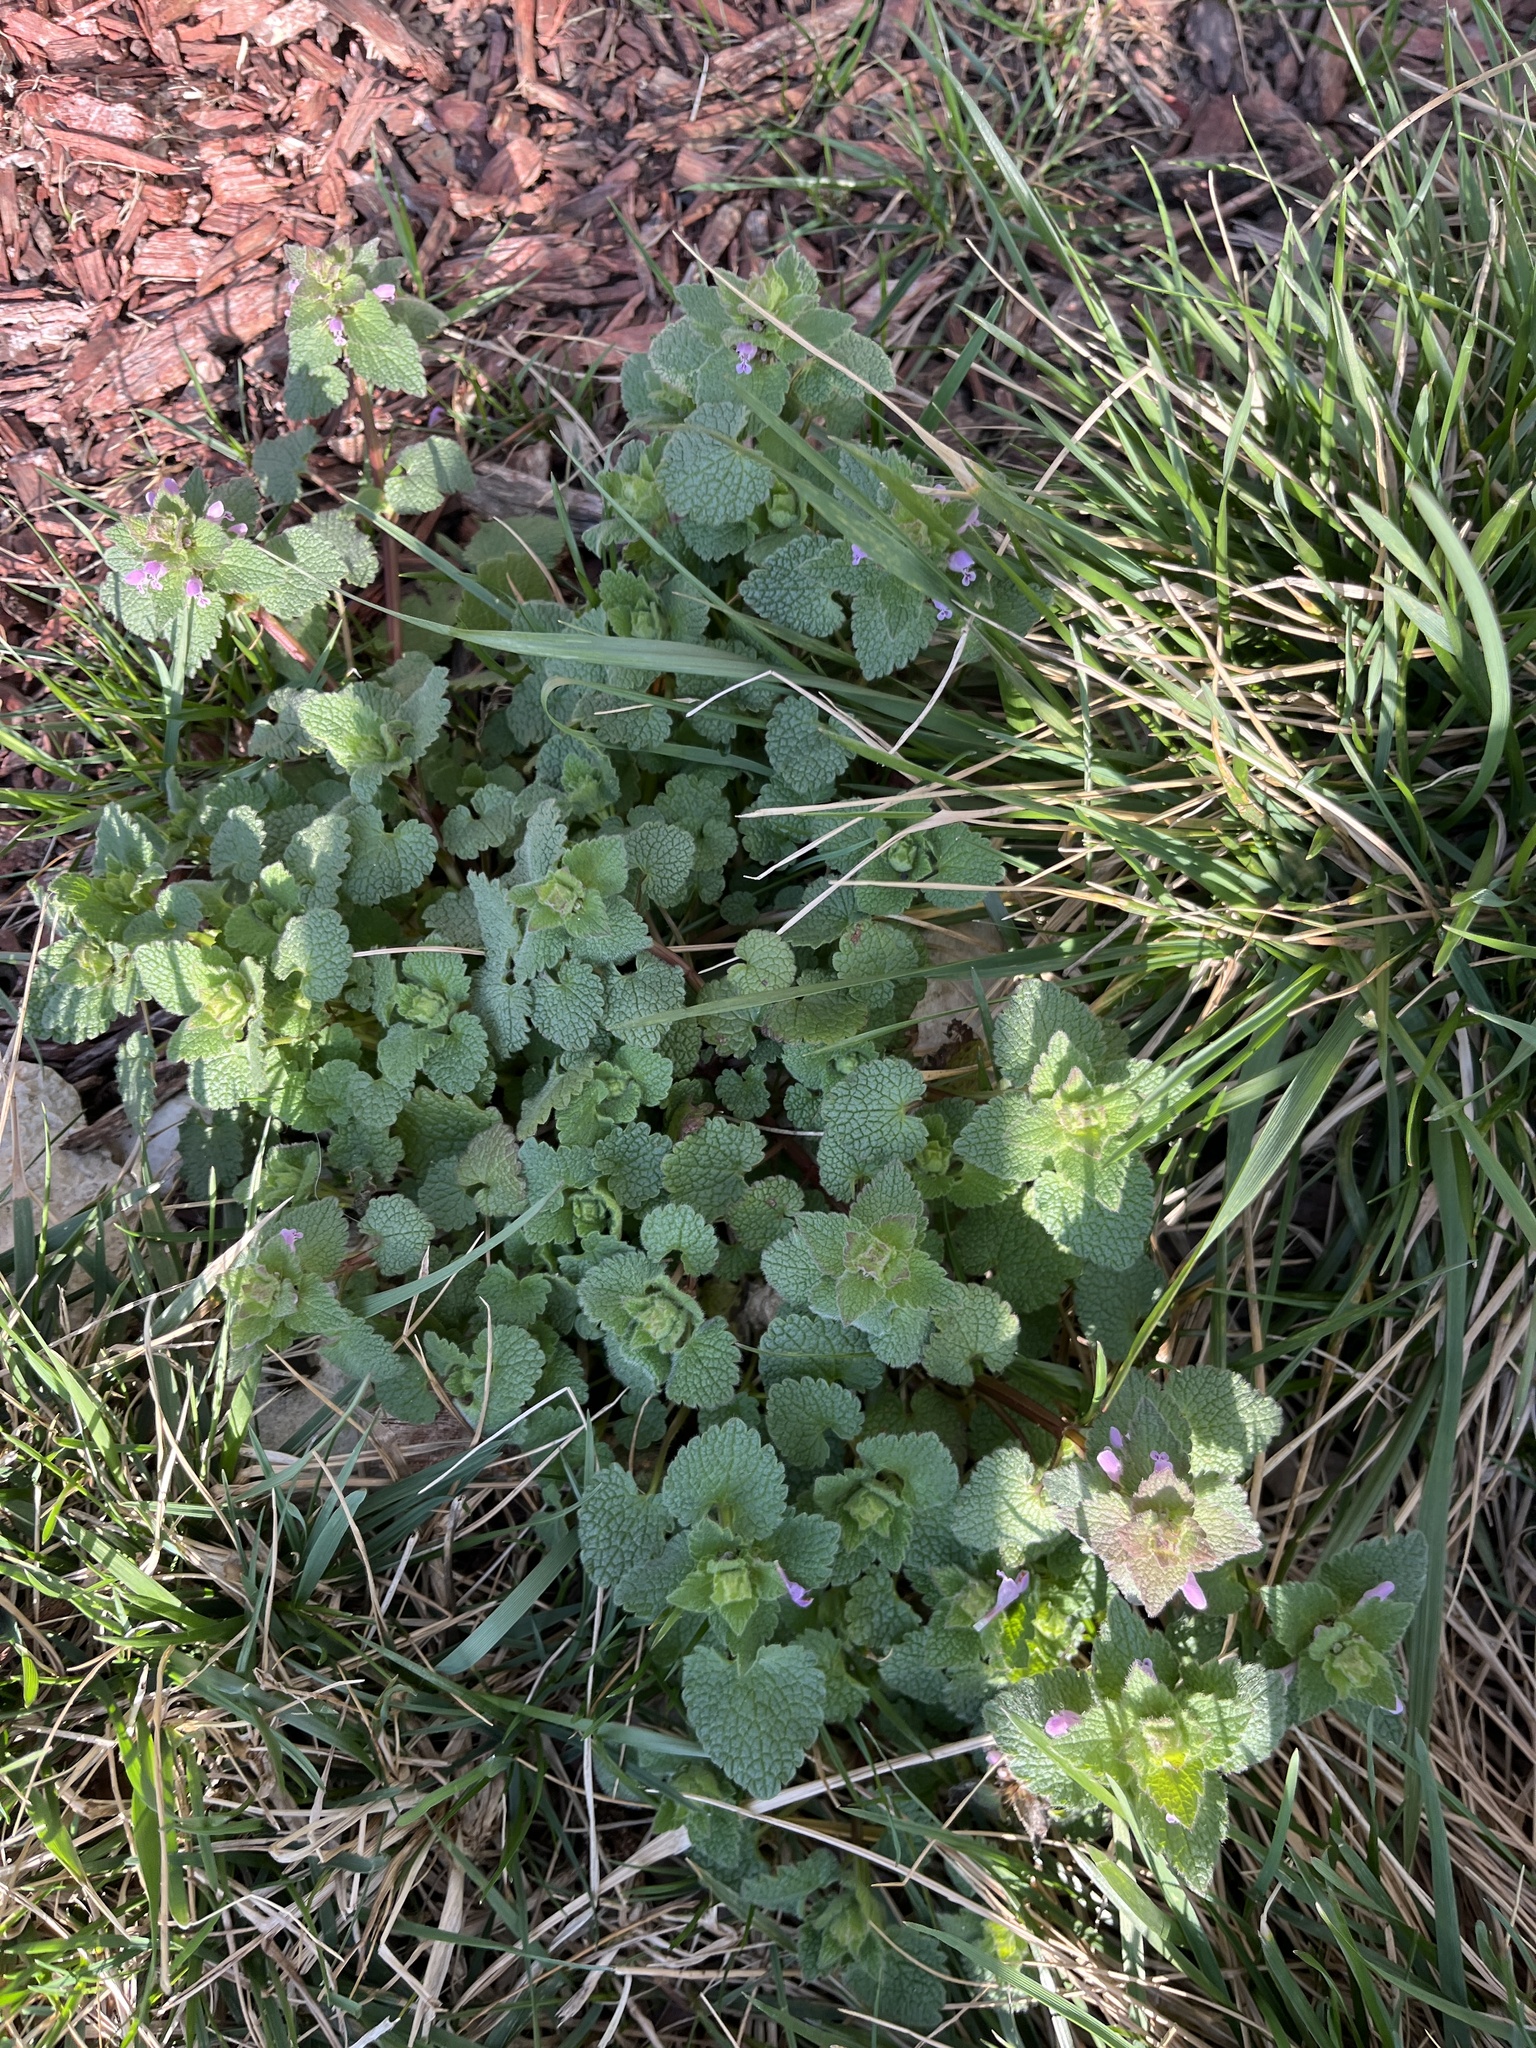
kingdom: Plantae
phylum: Tracheophyta
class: Magnoliopsida
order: Lamiales
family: Lamiaceae
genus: Lamium
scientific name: Lamium purpureum
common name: Red dead-nettle
